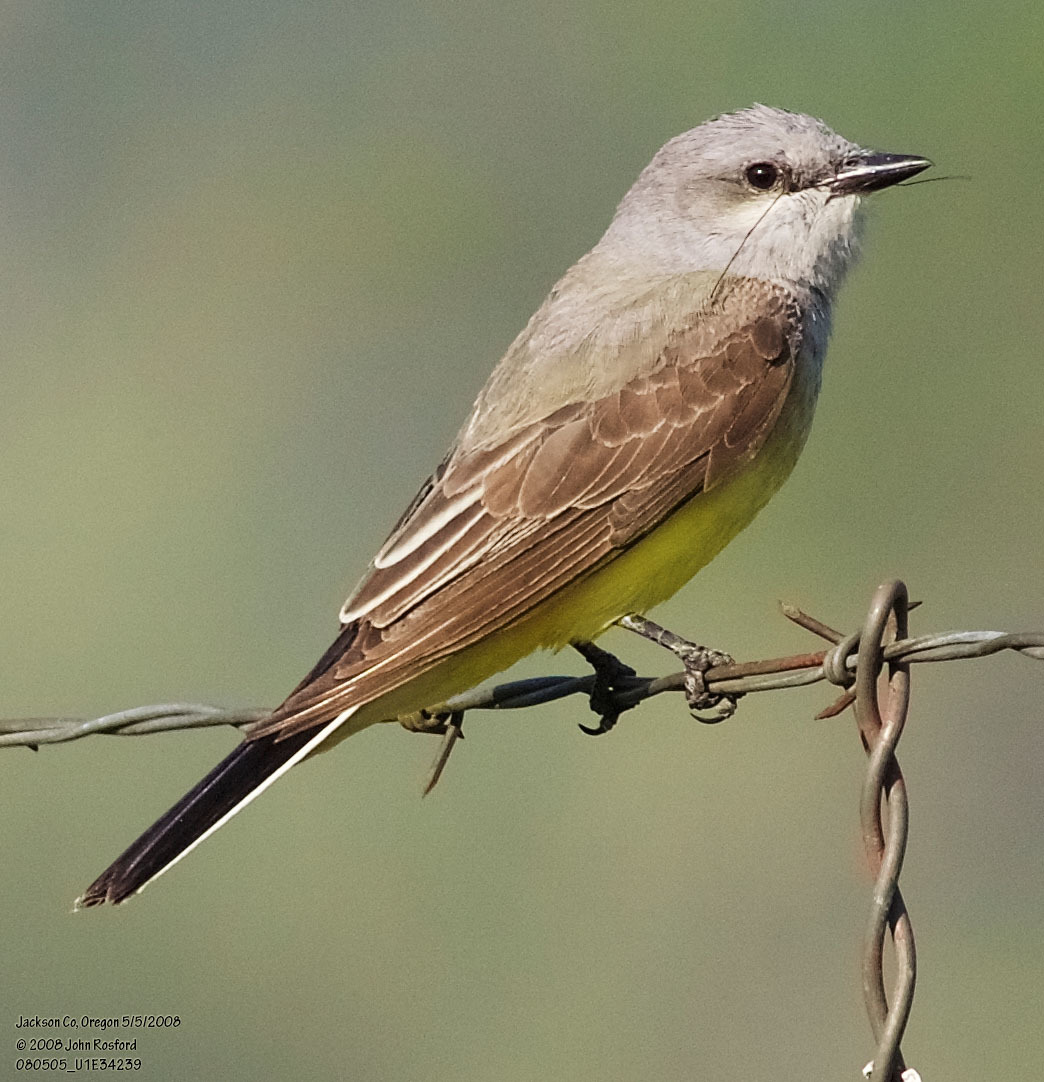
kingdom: Animalia
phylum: Chordata
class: Aves
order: Passeriformes
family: Tyrannidae
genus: Tyrannus
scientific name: Tyrannus verticalis
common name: Western kingbird
